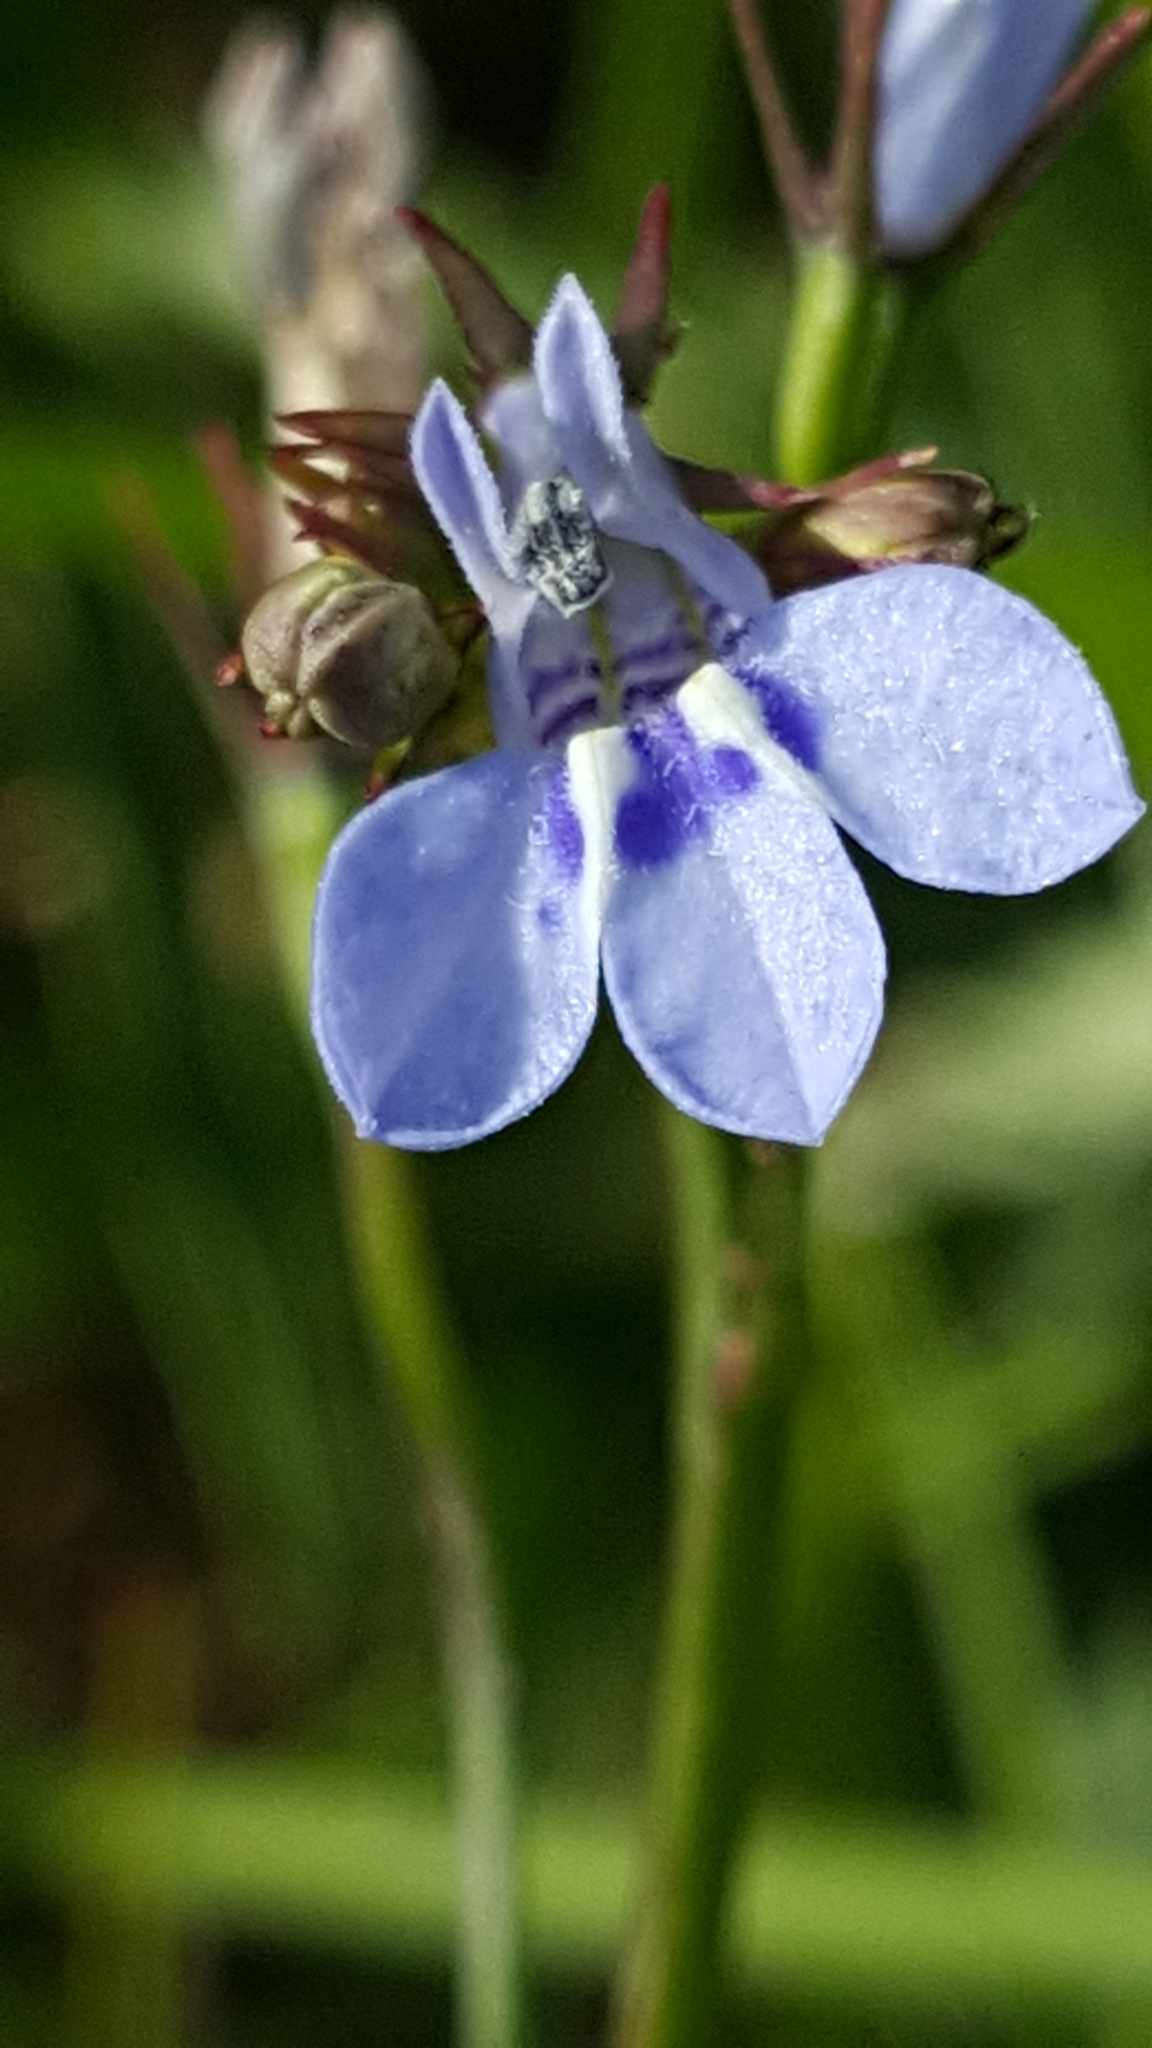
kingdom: Plantae
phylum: Tracheophyta
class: Magnoliopsida
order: Asterales
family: Campanulaceae
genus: Lobelia
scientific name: Lobelia flaccida
